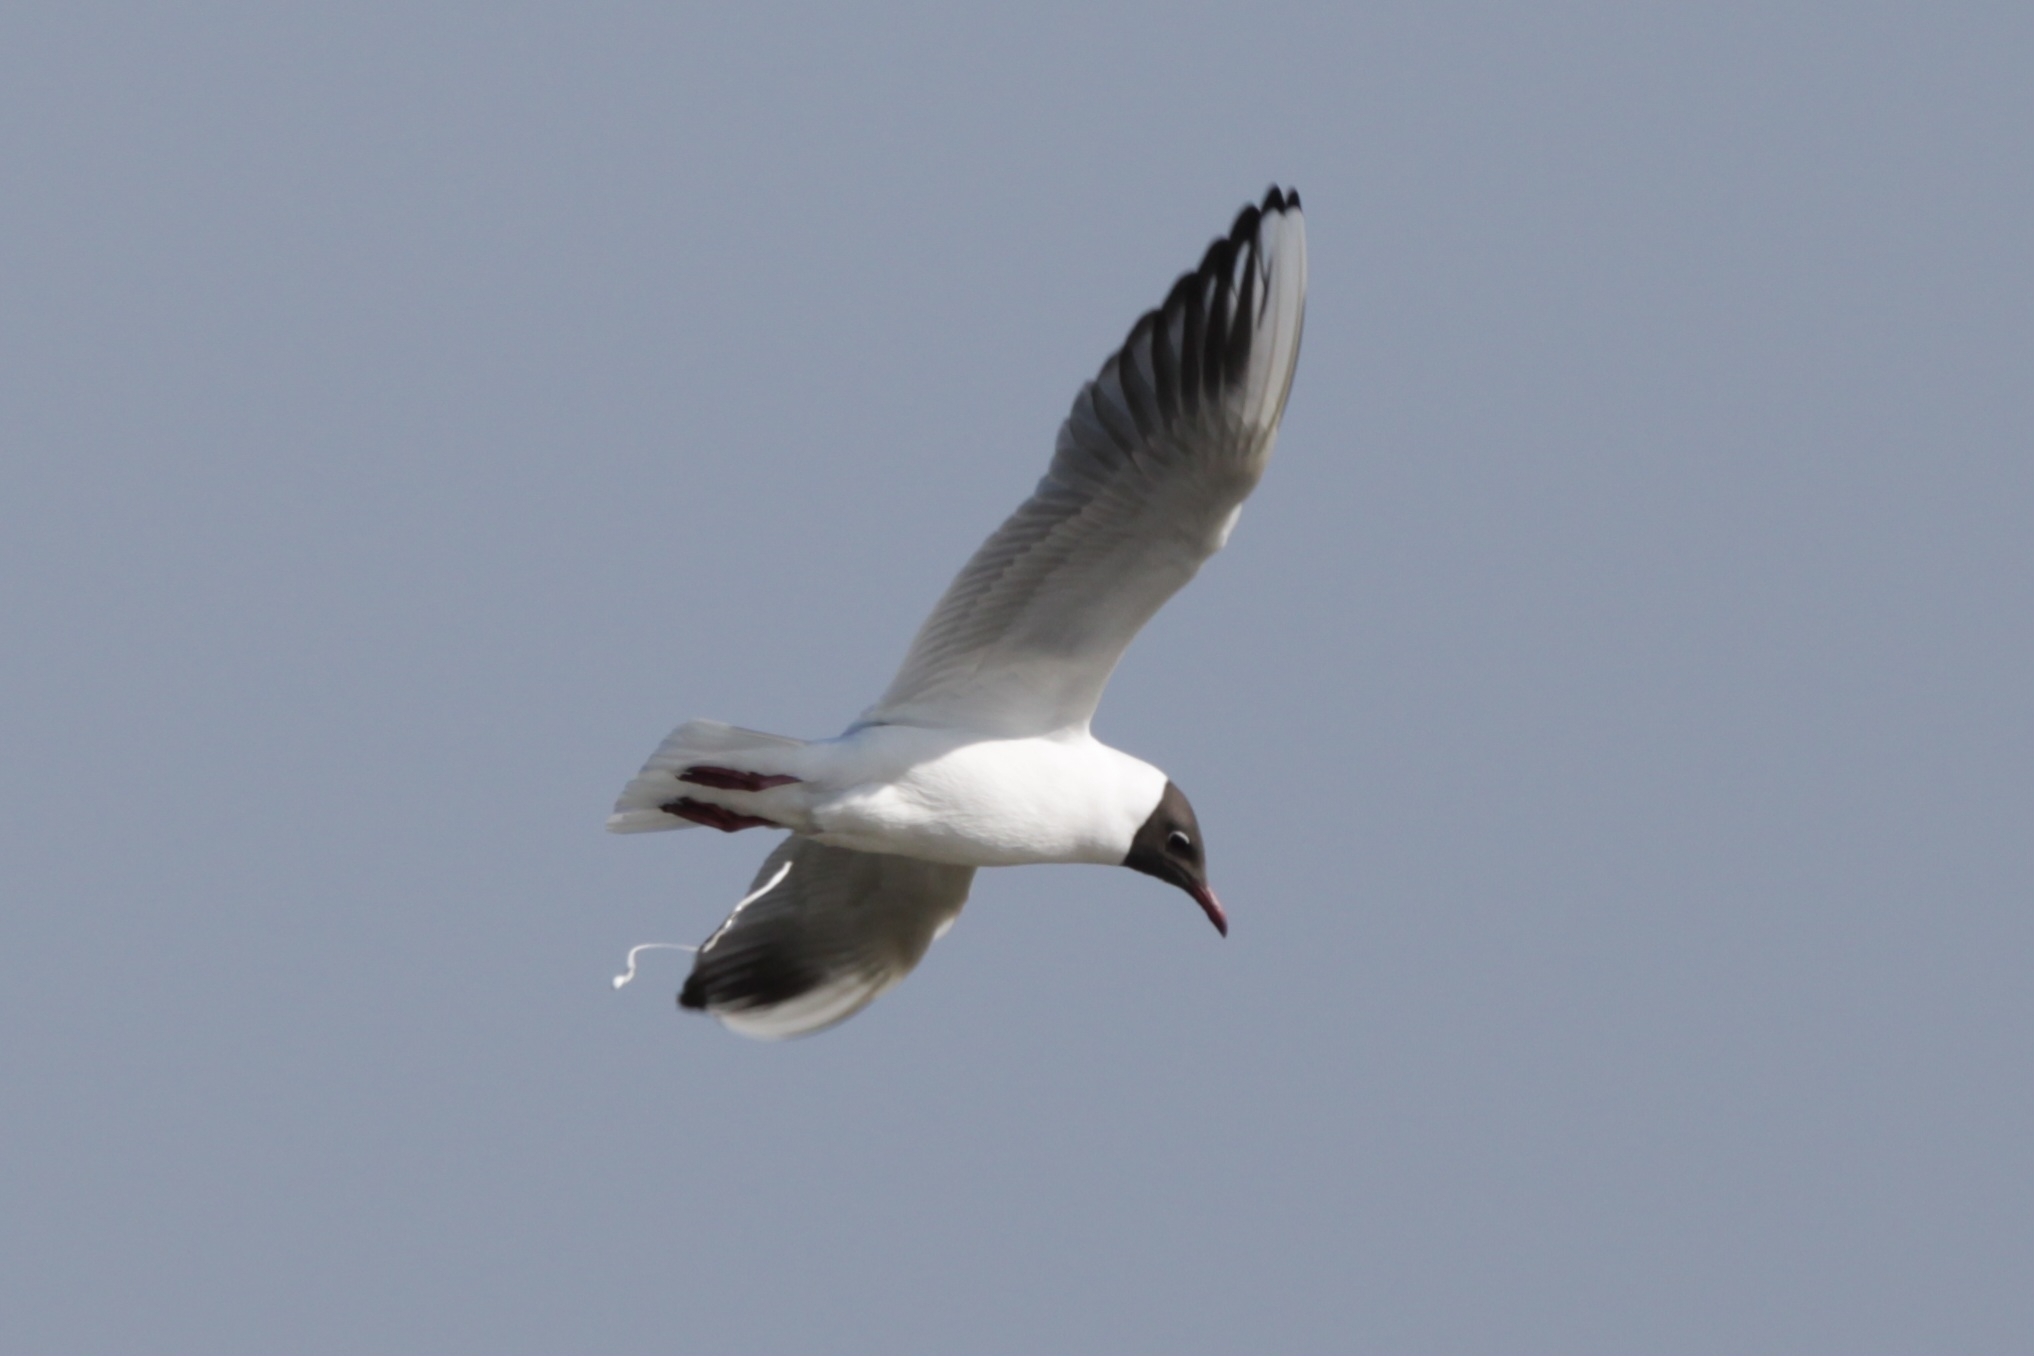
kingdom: Animalia
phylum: Chordata
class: Aves
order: Charadriiformes
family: Laridae
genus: Chroicocephalus
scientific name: Chroicocephalus ridibundus
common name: Black-headed gull
